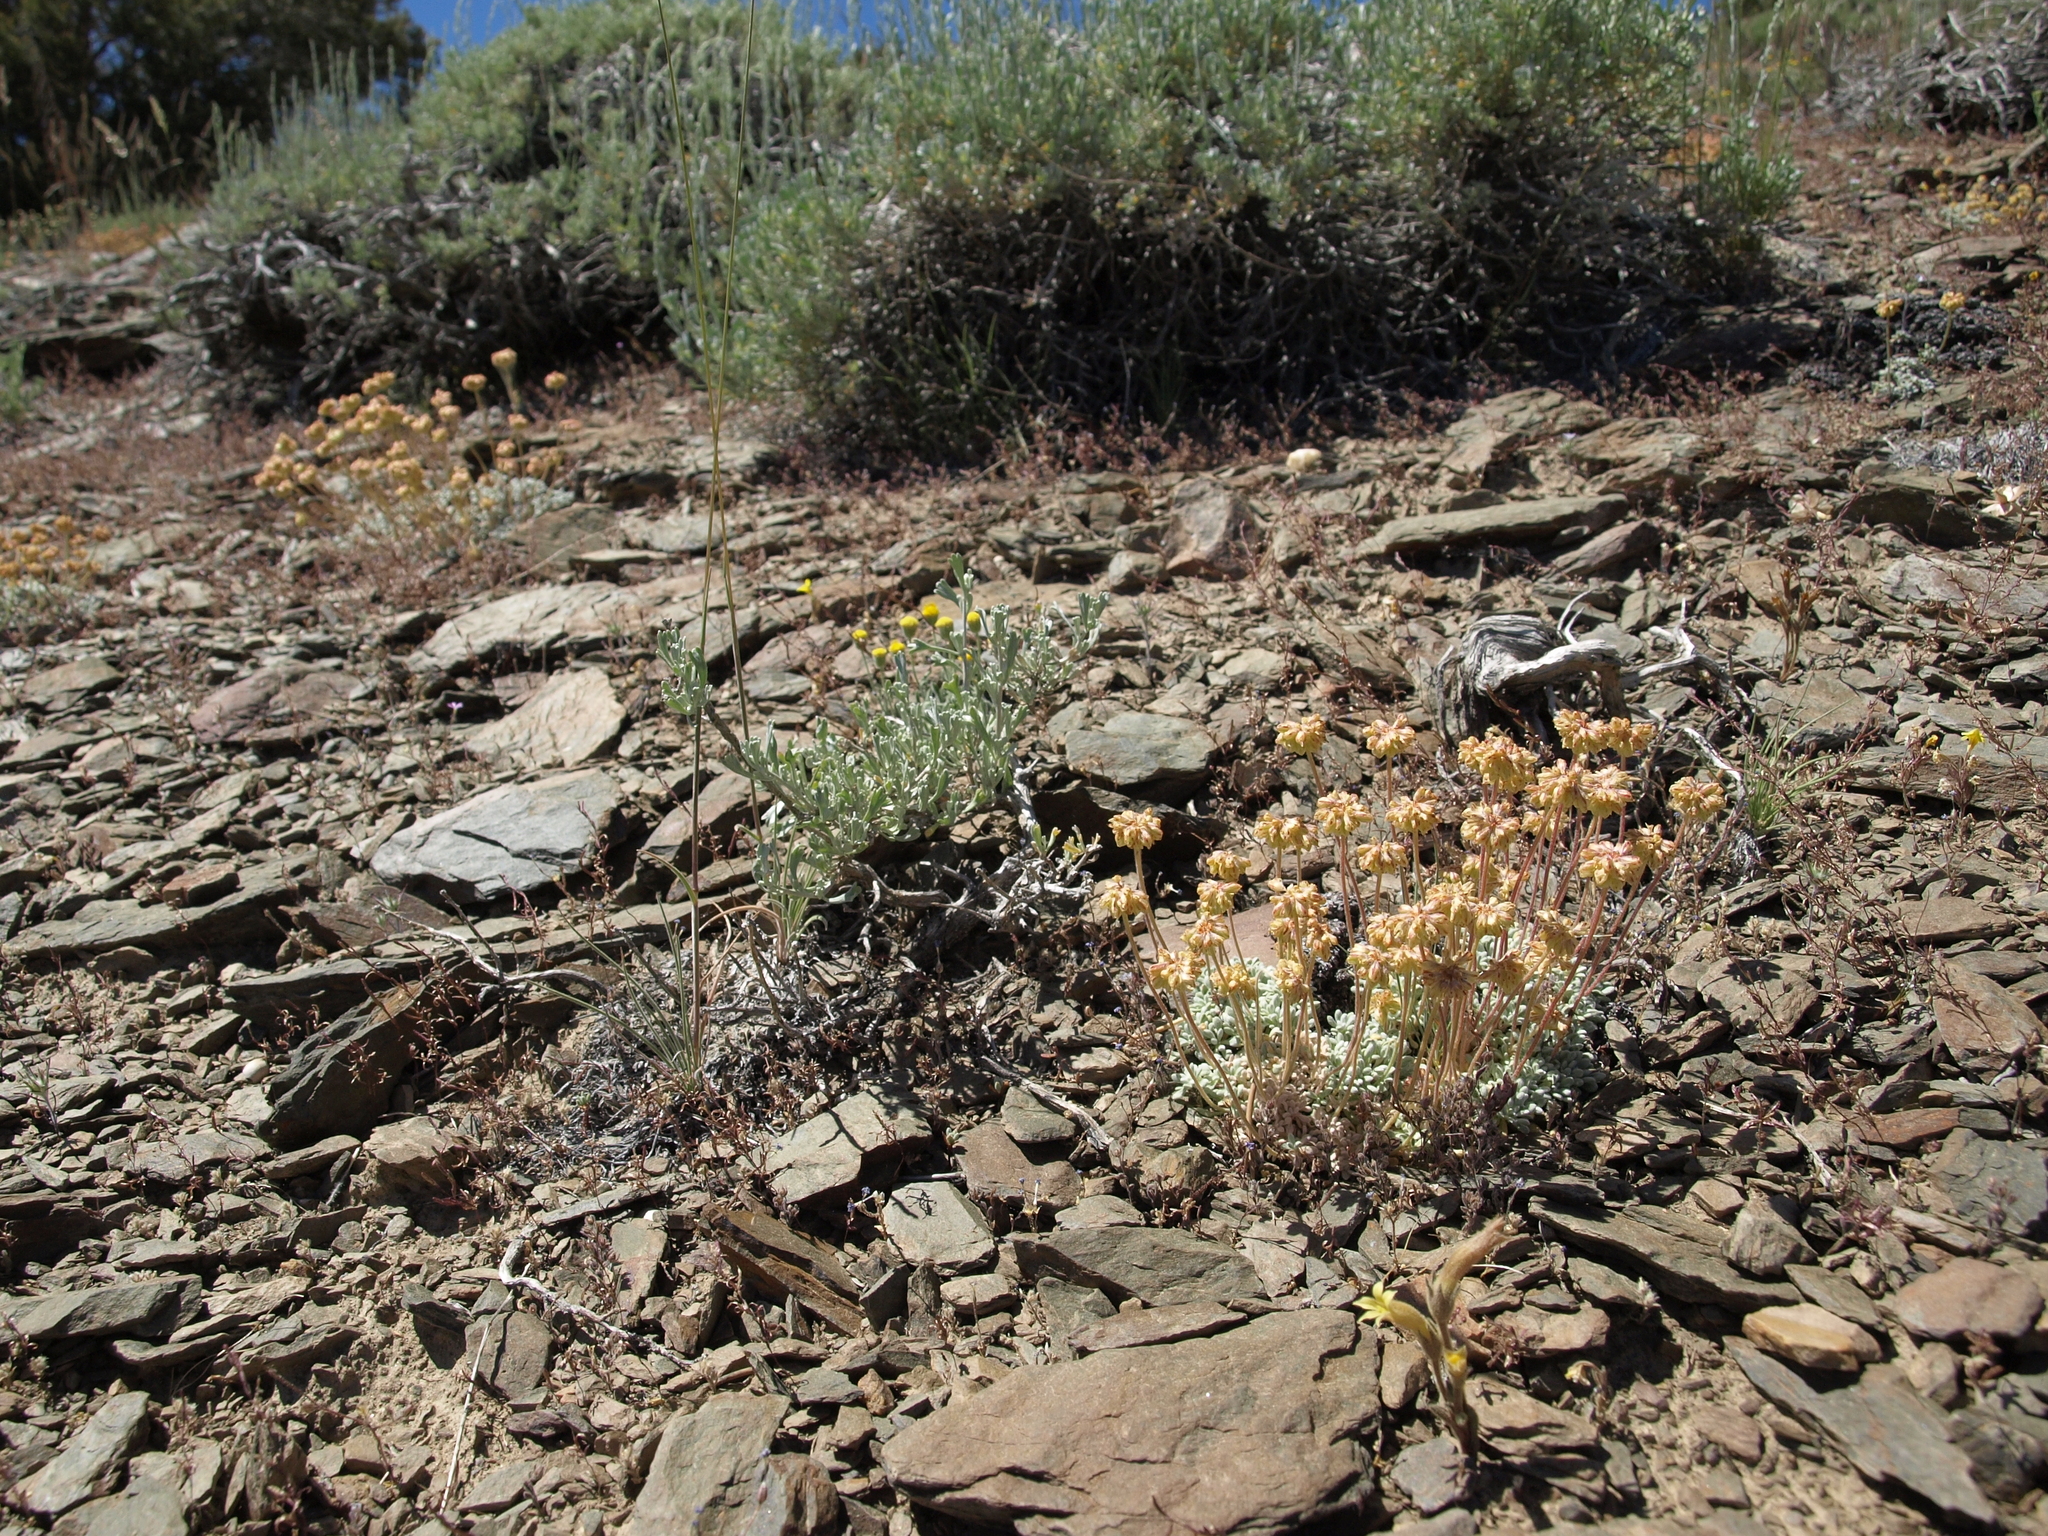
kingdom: Plantae
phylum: Tracheophyta
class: Magnoliopsida
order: Lamiales
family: Orobanchaceae
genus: Aphyllon
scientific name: Aphyllon franciscanum
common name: San francisco broomrape
